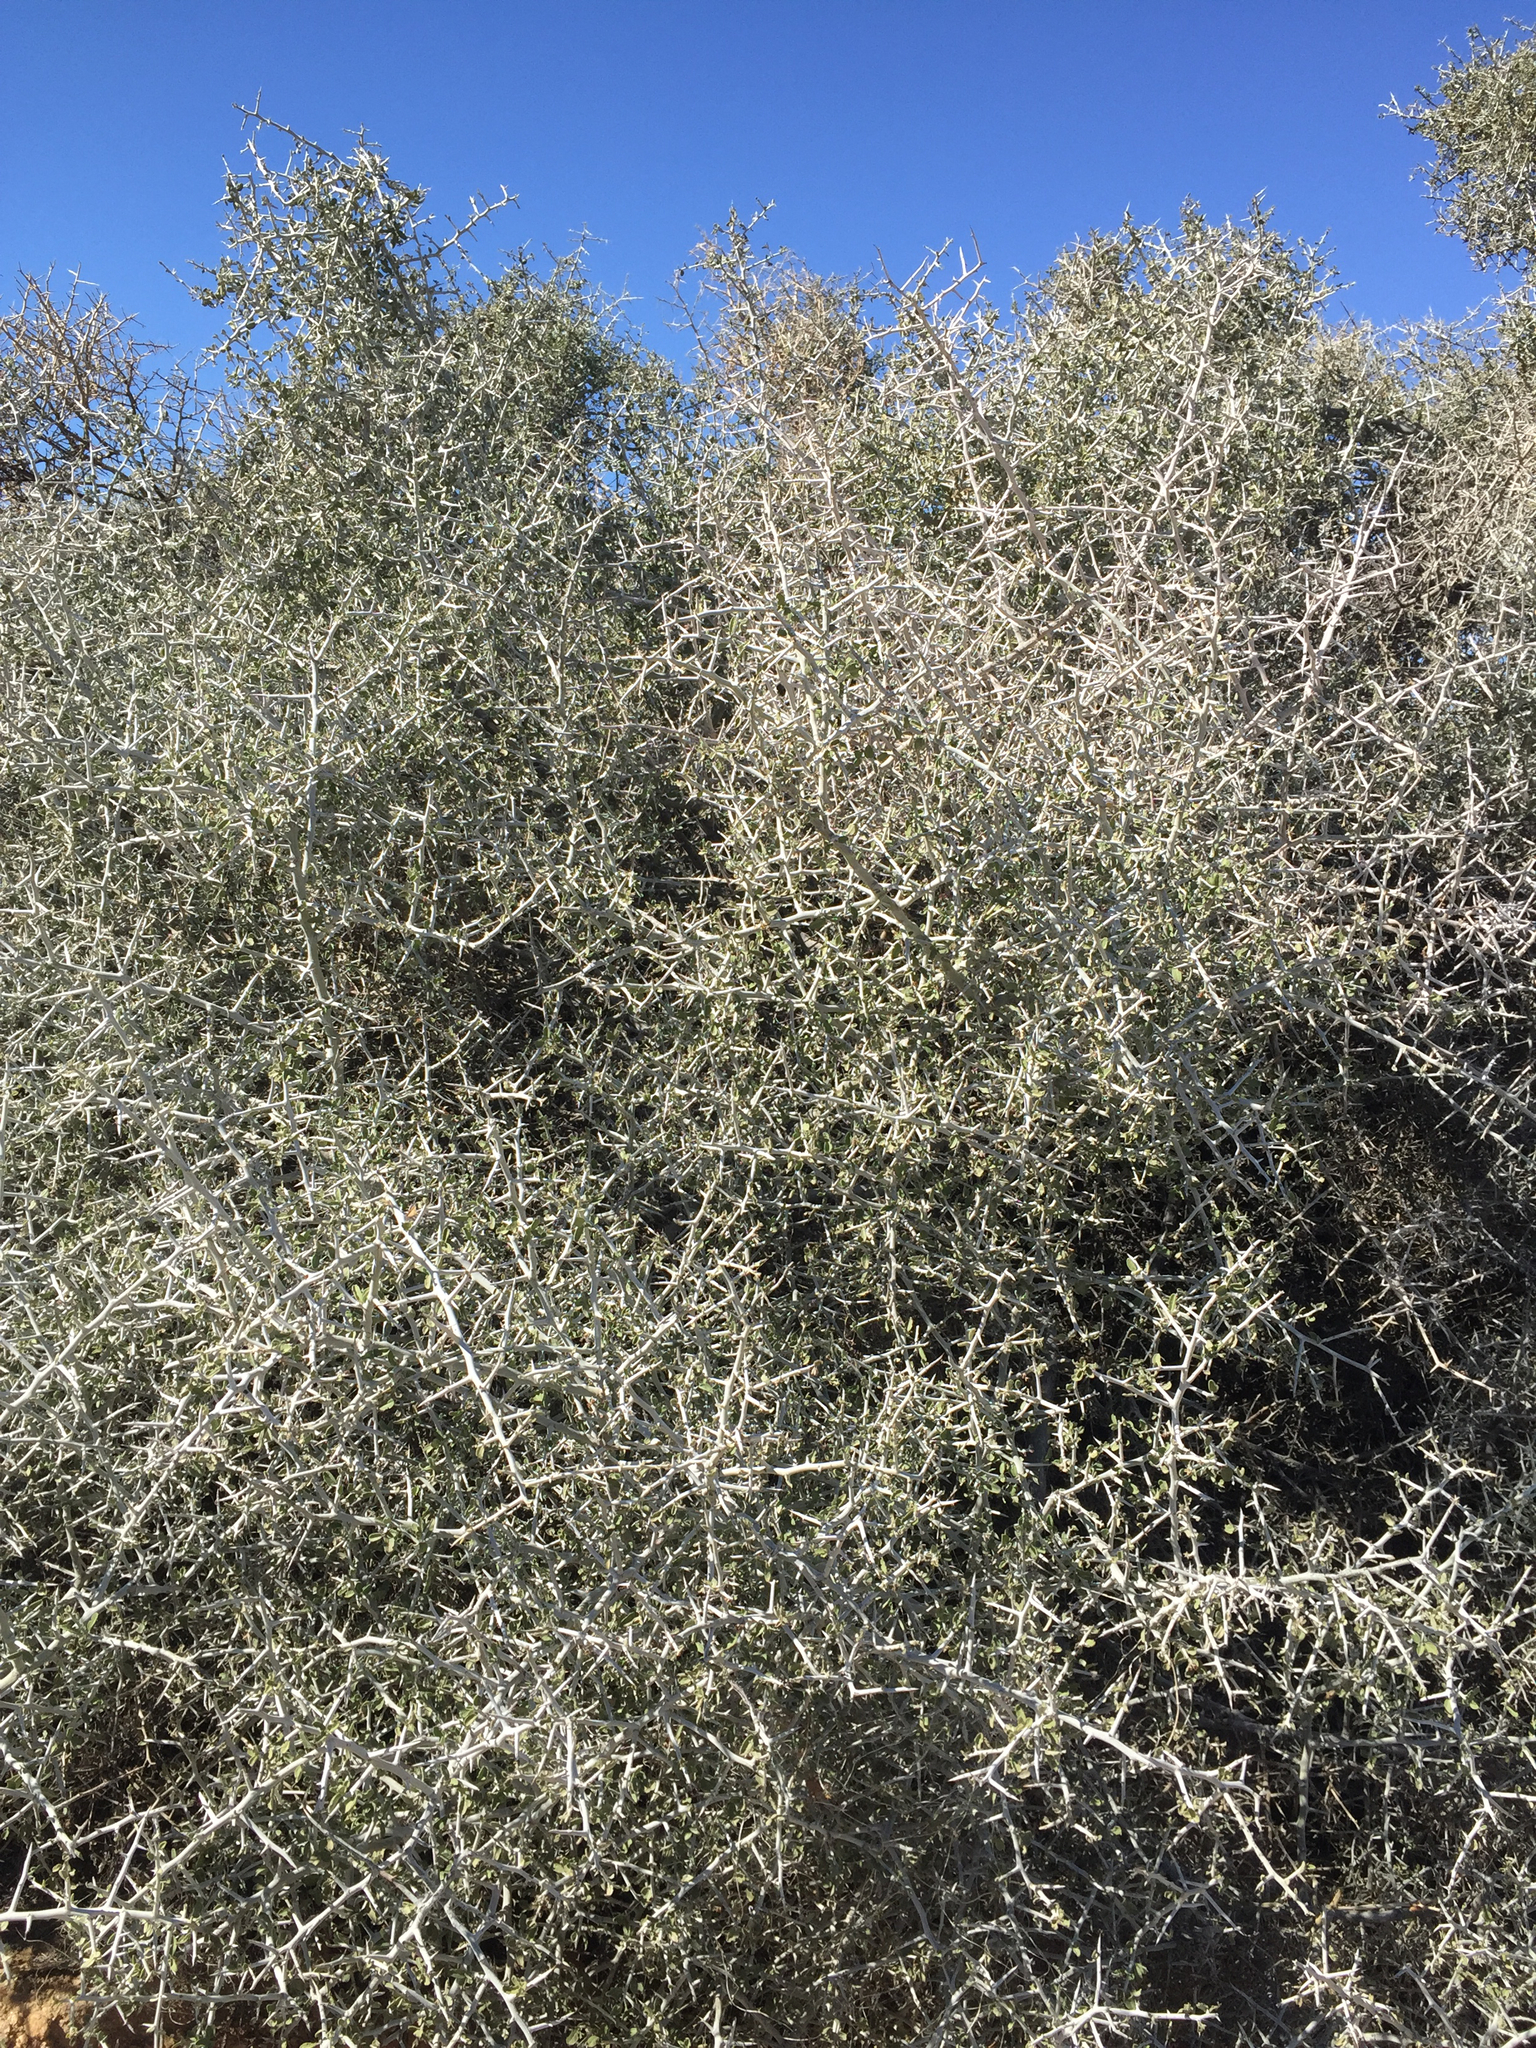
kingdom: Plantae
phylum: Tracheophyta
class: Magnoliopsida
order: Rosales
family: Rhamnaceae
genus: Sarcomphalus
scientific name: Sarcomphalus obtusifolius
